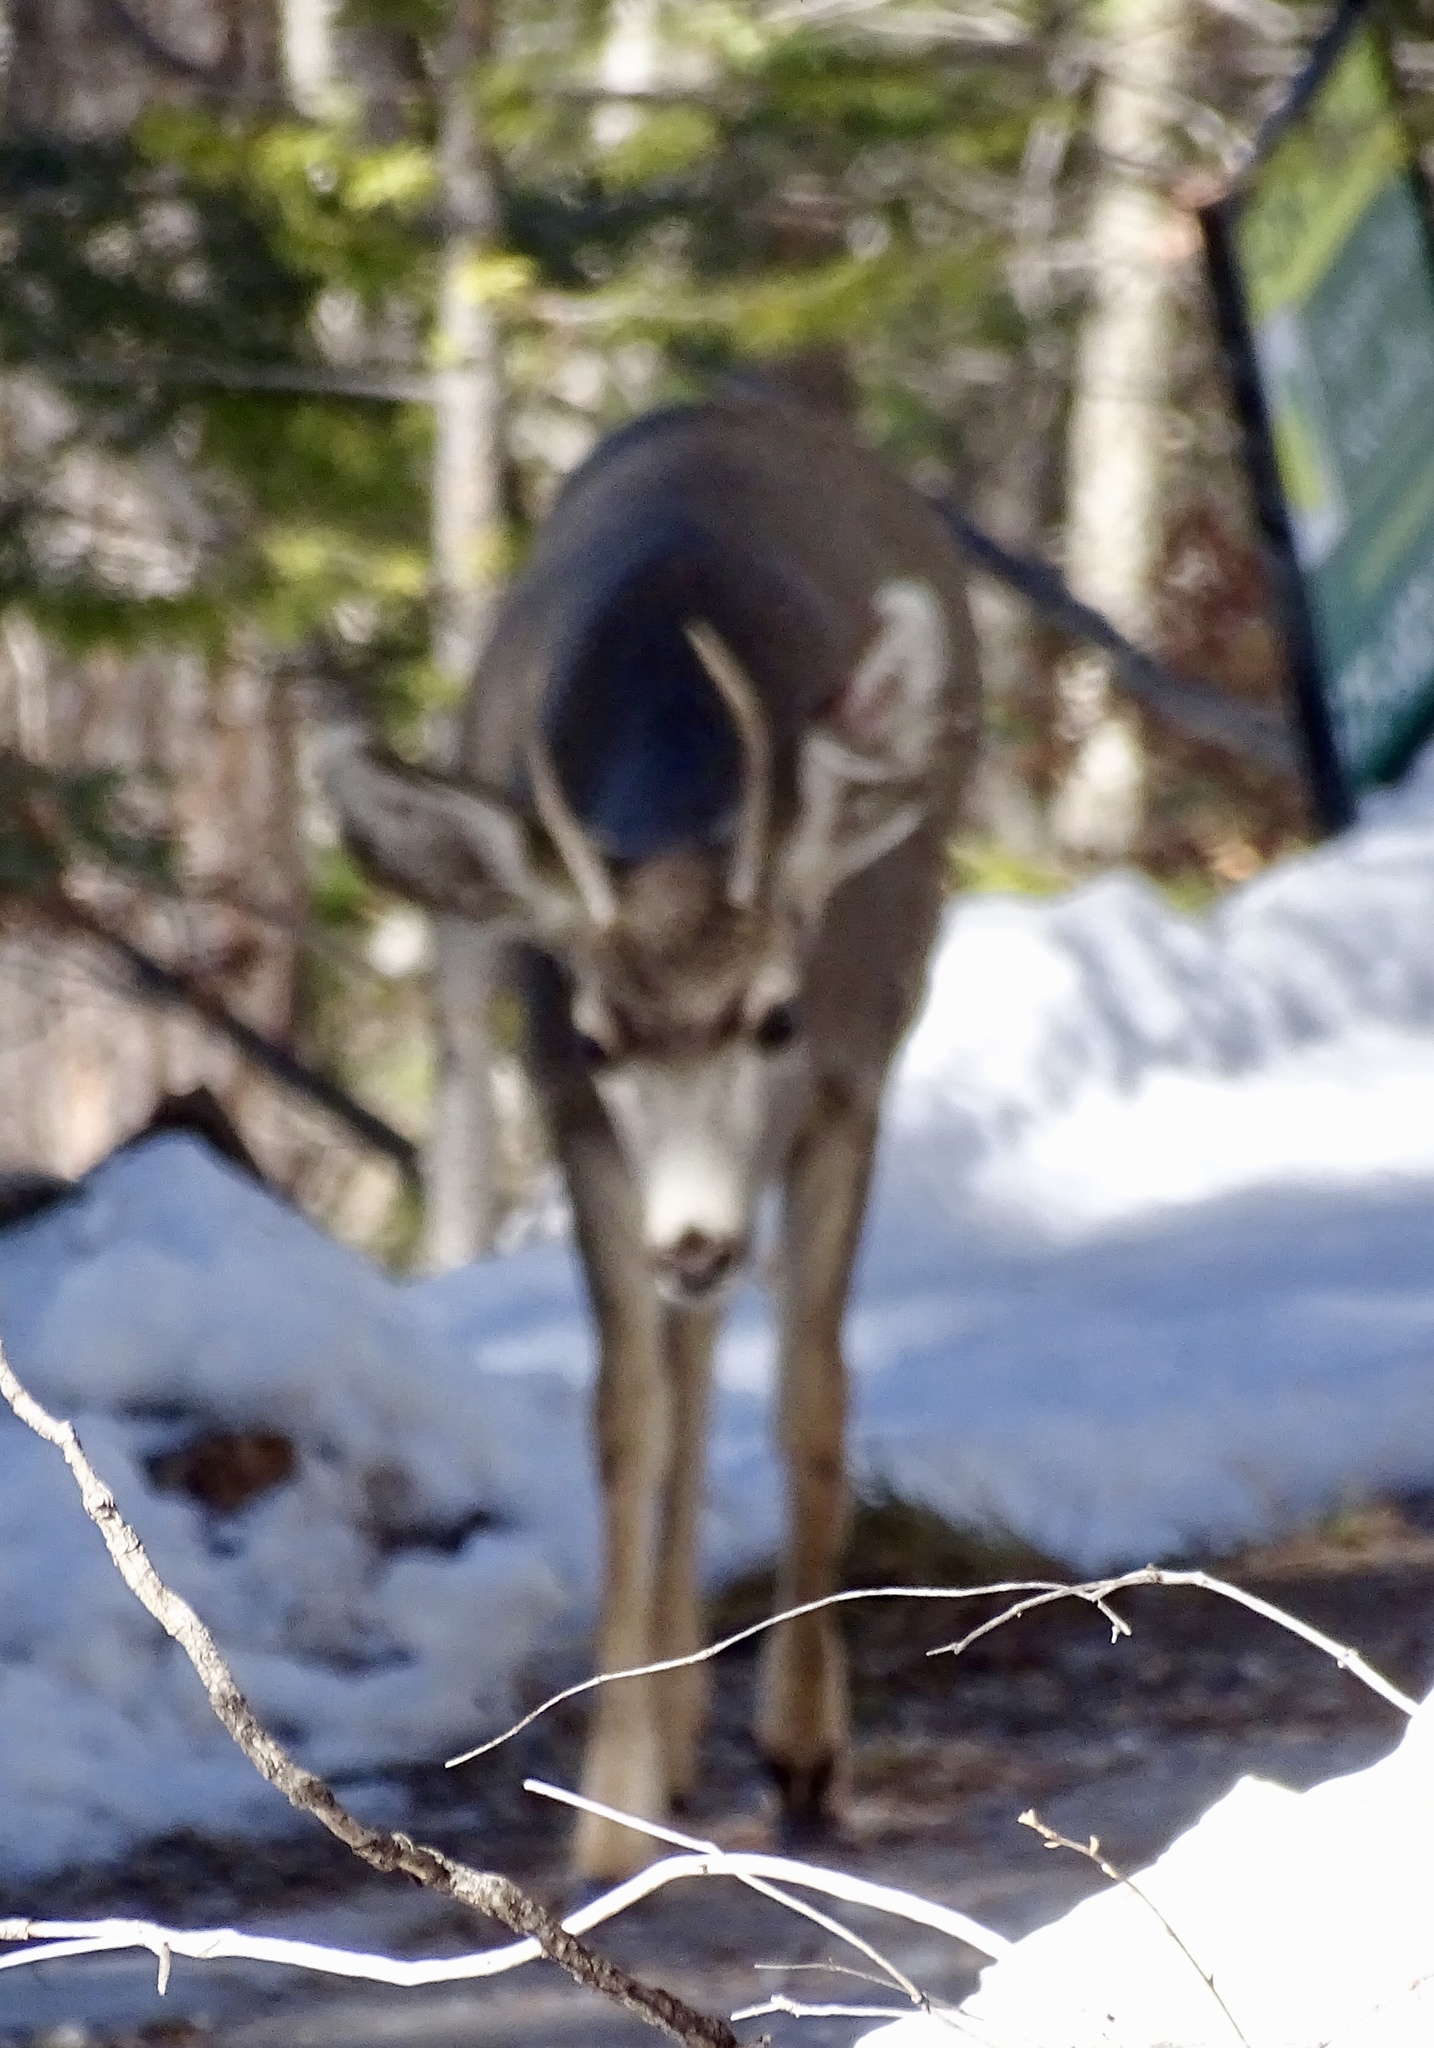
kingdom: Animalia
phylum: Chordata
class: Mammalia
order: Artiodactyla
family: Cervidae
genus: Odocoileus
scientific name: Odocoileus hemionus
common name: Mule deer
